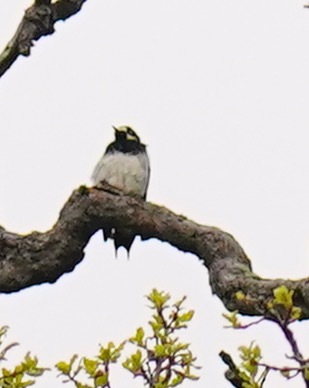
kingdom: Animalia
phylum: Chordata
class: Aves
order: Piciformes
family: Picidae
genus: Melanerpes
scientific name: Melanerpes formicivorus
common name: Acorn woodpecker
